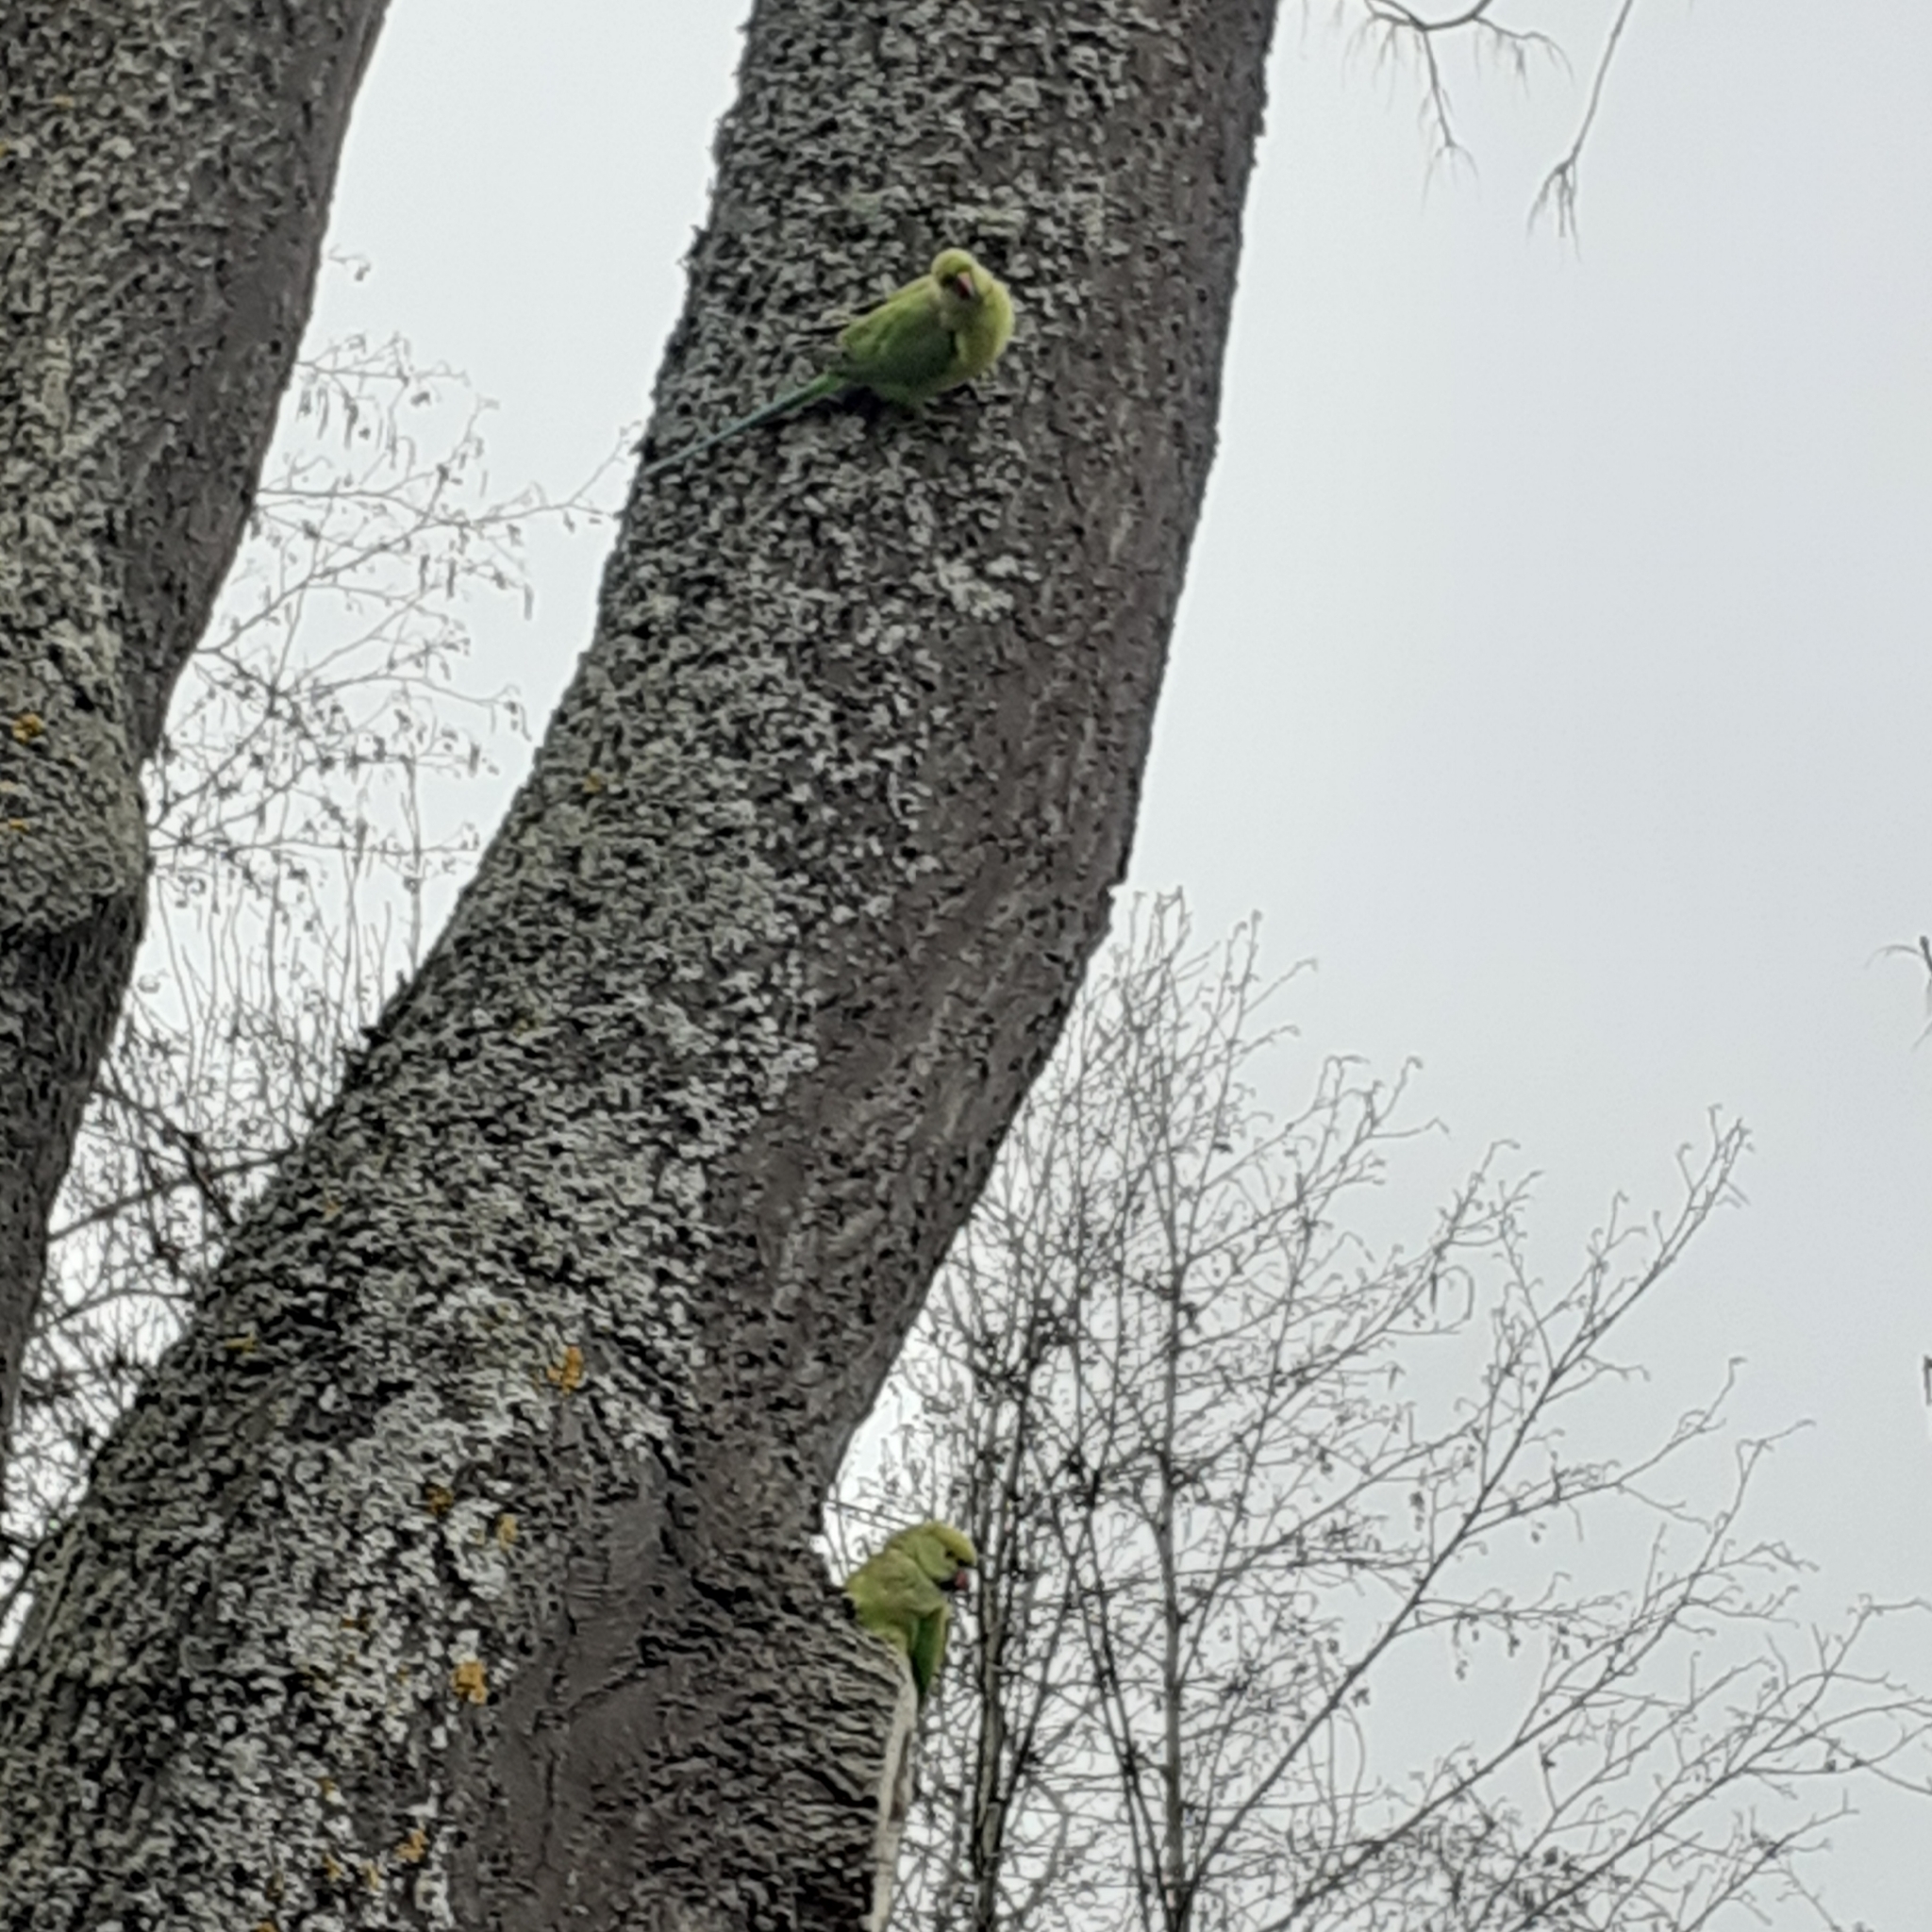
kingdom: Animalia
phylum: Chordata
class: Aves
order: Psittaciformes
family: Psittacidae
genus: Psittacula
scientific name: Psittacula krameri
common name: Rose-ringed parakeet
